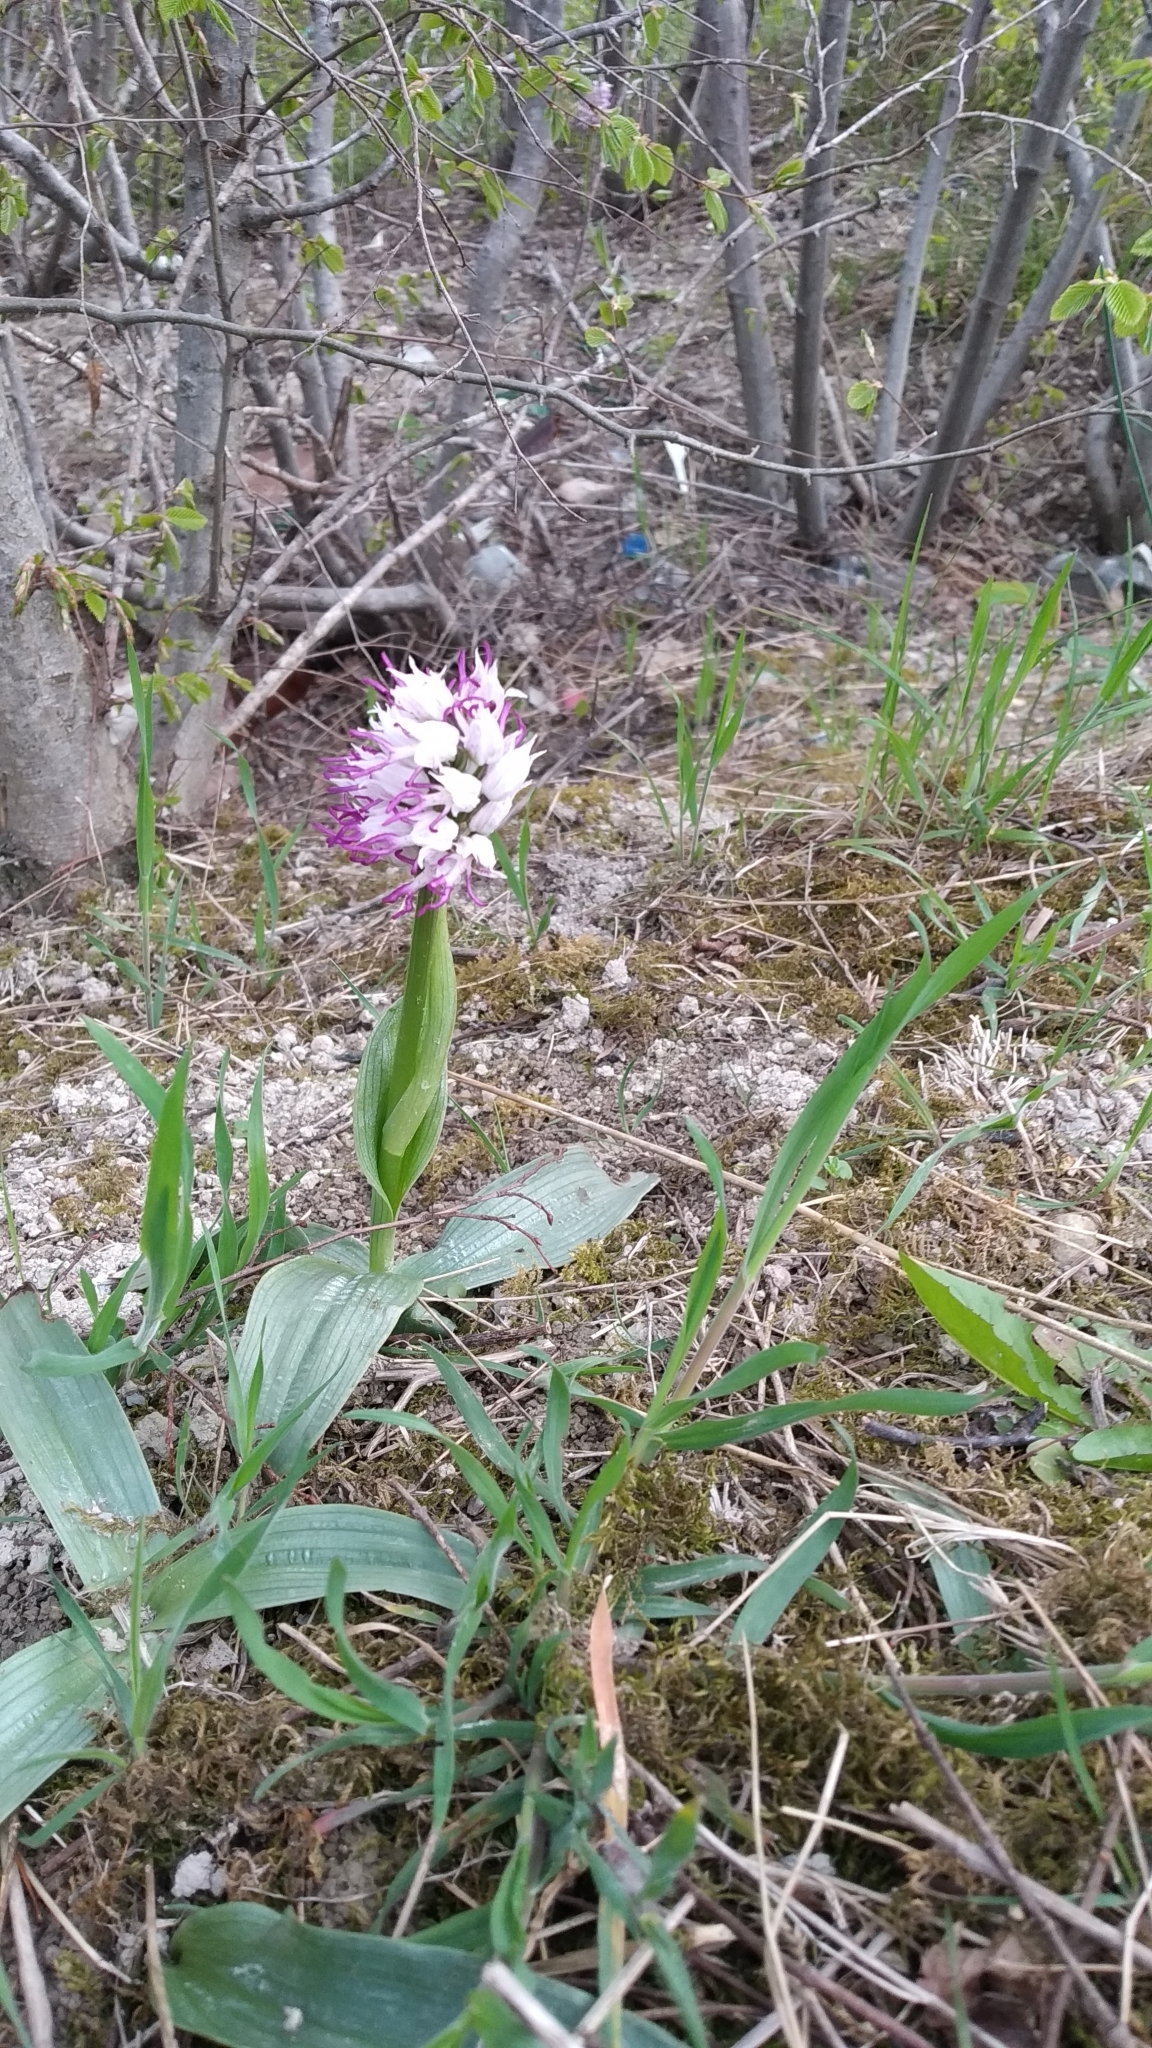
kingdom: Plantae
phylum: Tracheophyta
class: Liliopsida
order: Asparagales
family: Orchidaceae
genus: Orchis
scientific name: Orchis simia
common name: Monkey orchid
